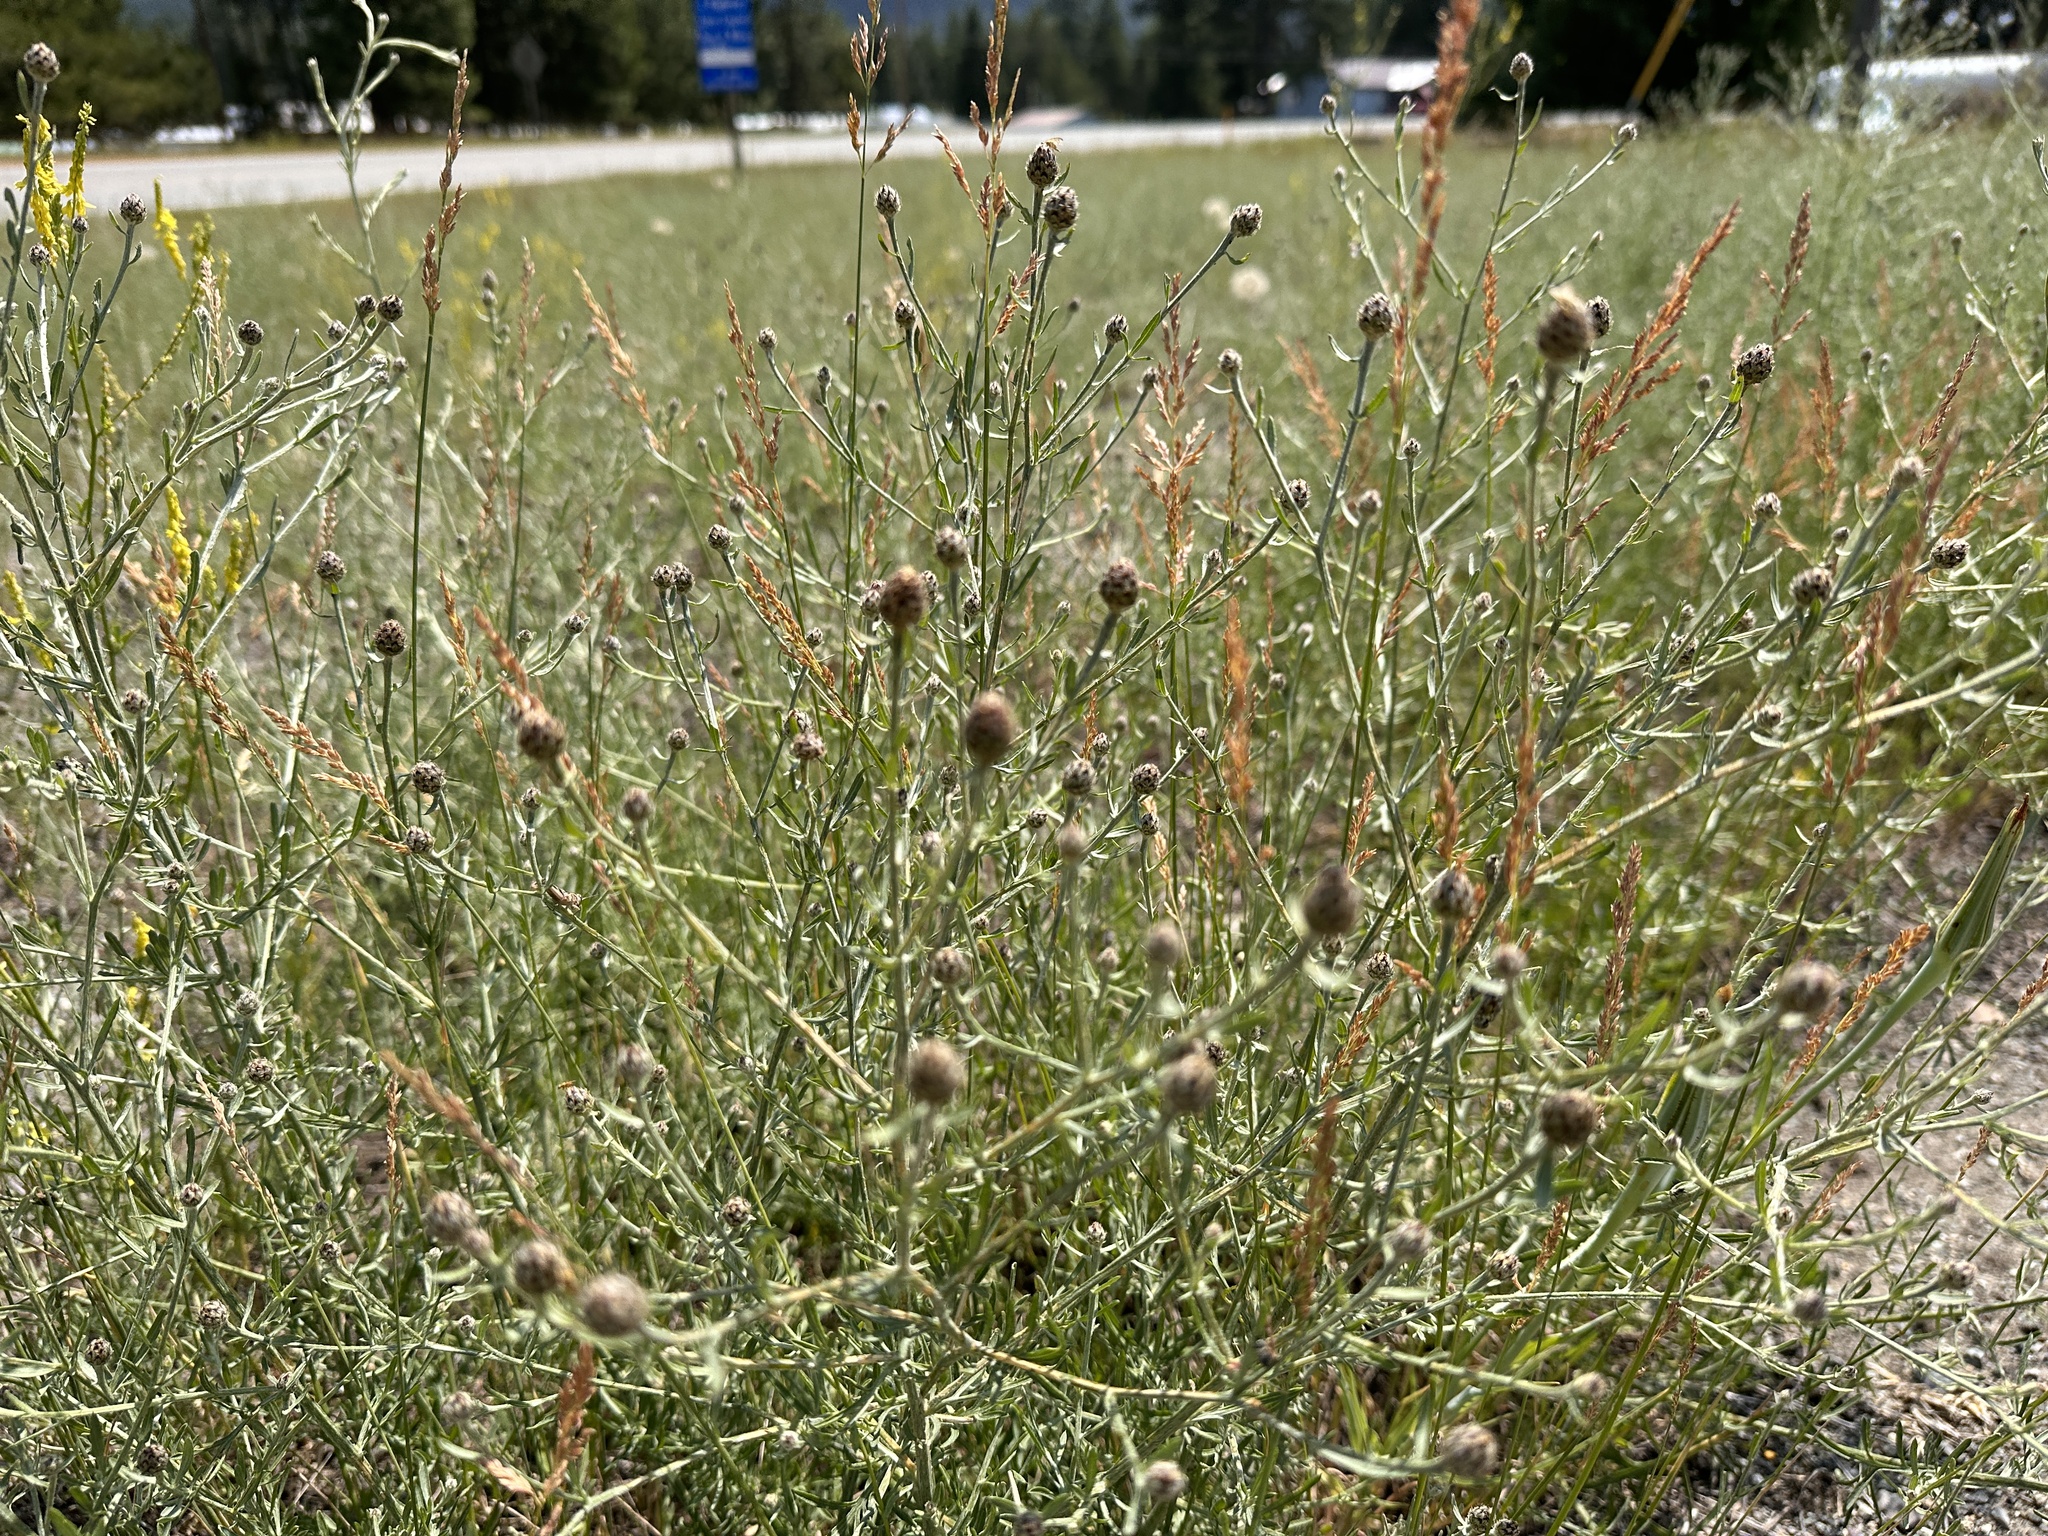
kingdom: Plantae
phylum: Tracheophyta
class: Magnoliopsida
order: Asterales
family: Asteraceae
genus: Centaurea
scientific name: Centaurea stoebe
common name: Spotted knapweed
